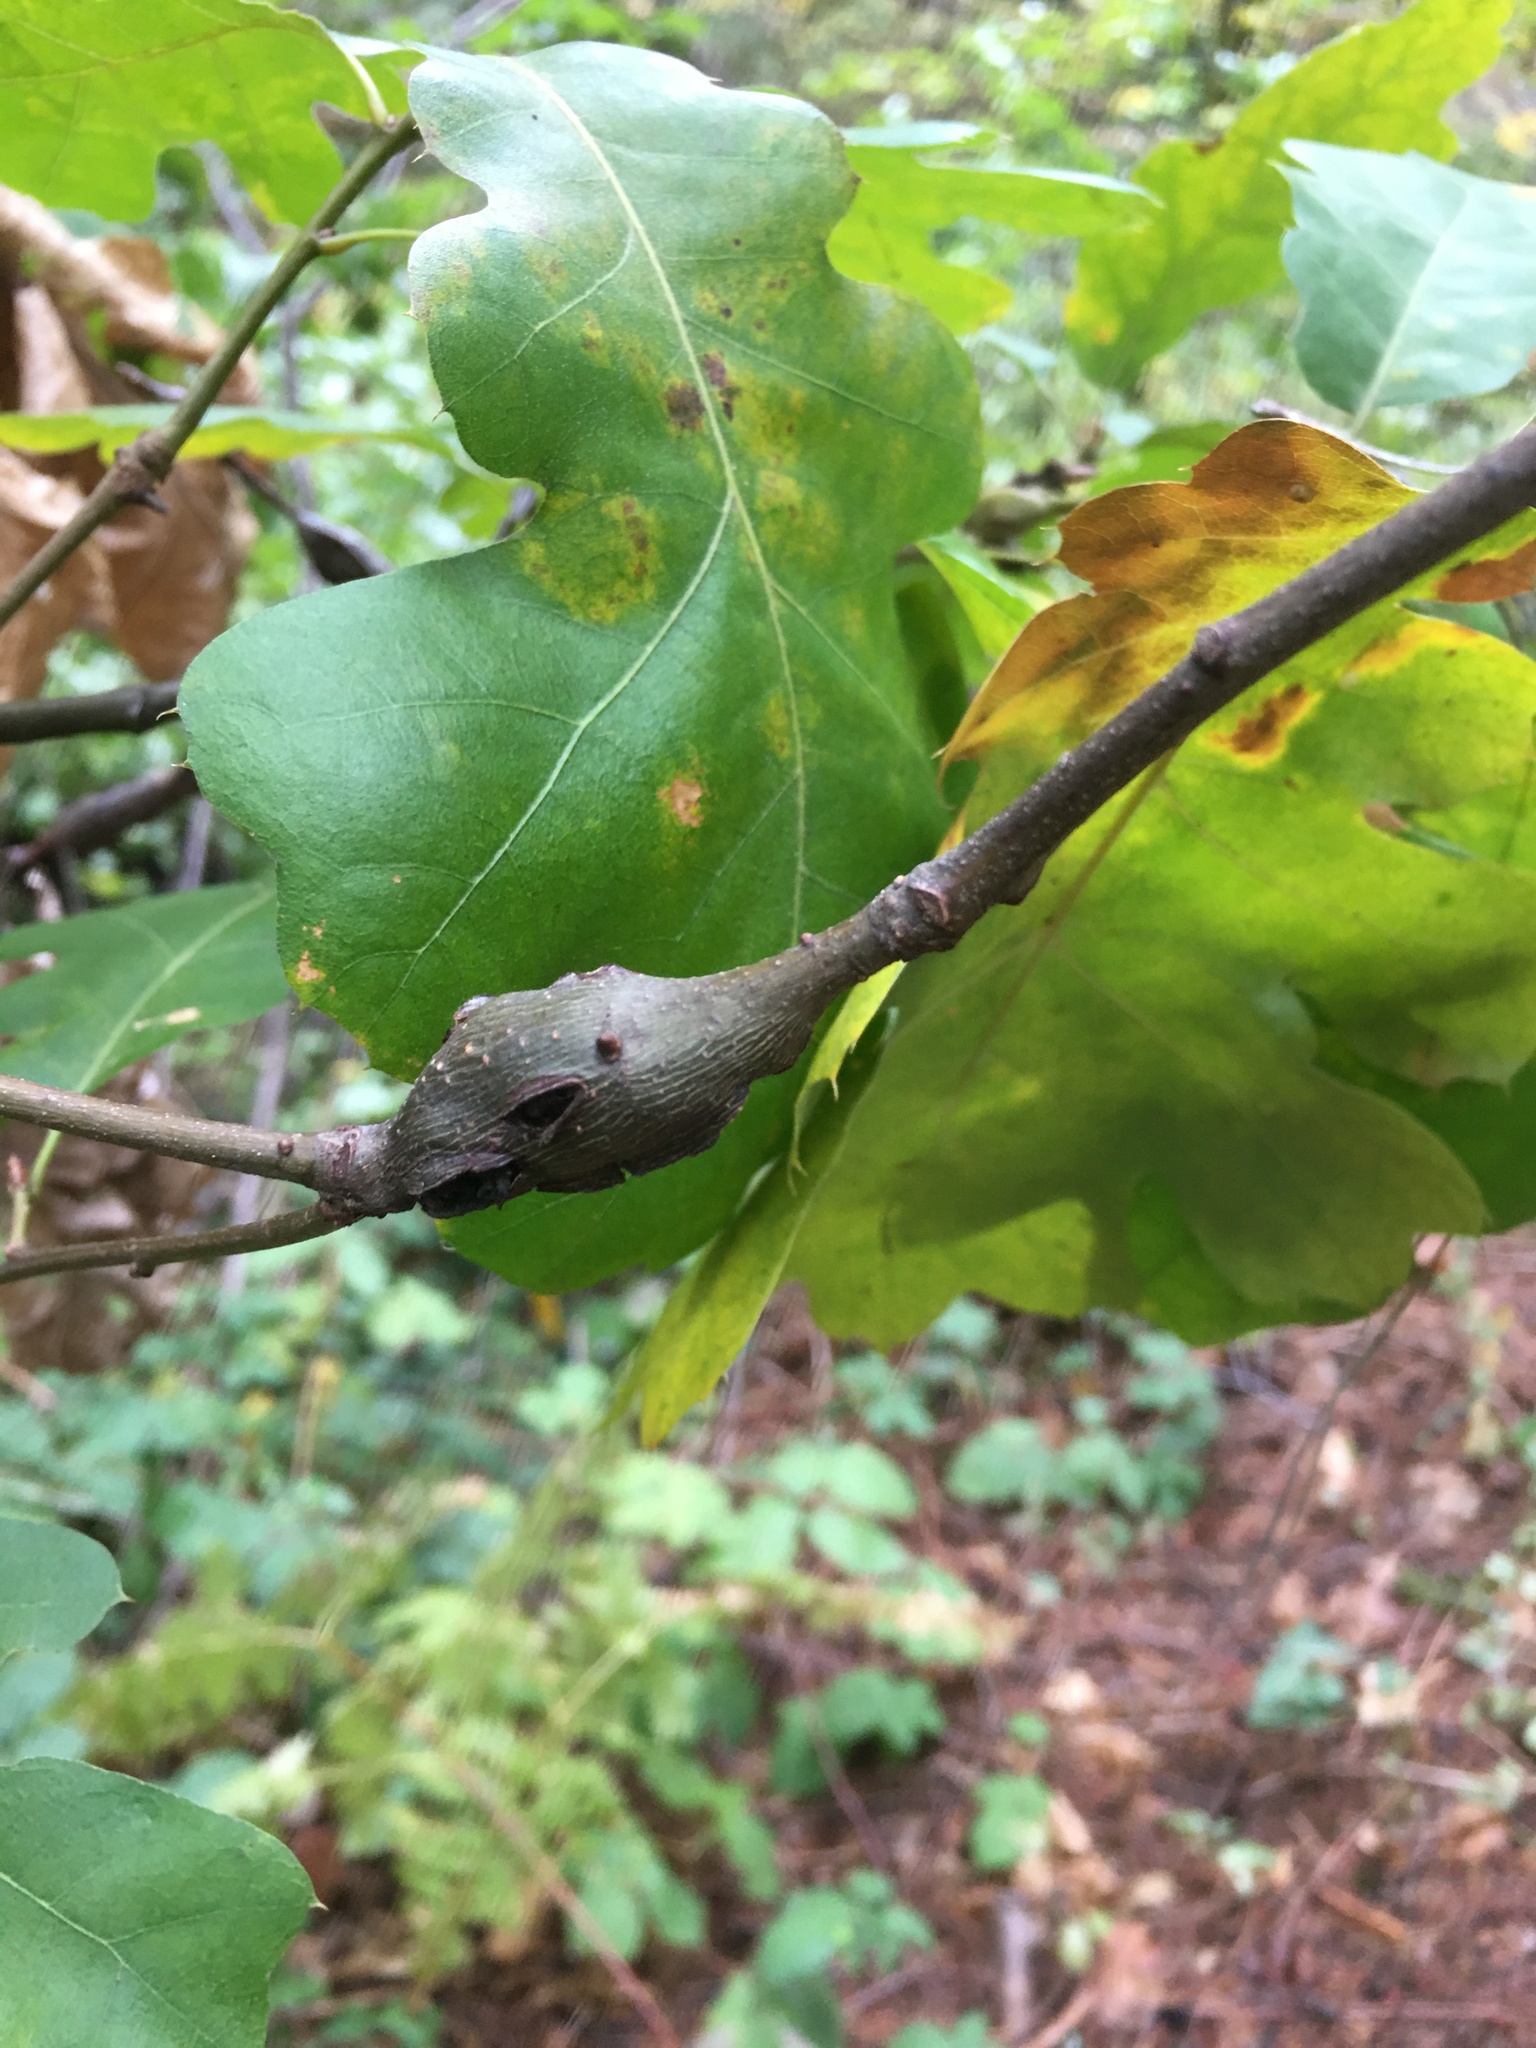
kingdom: Animalia
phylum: Arthropoda
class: Insecta
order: Hymenoptera
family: Cynipidae
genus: Callirhytis
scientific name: Callirhytis
